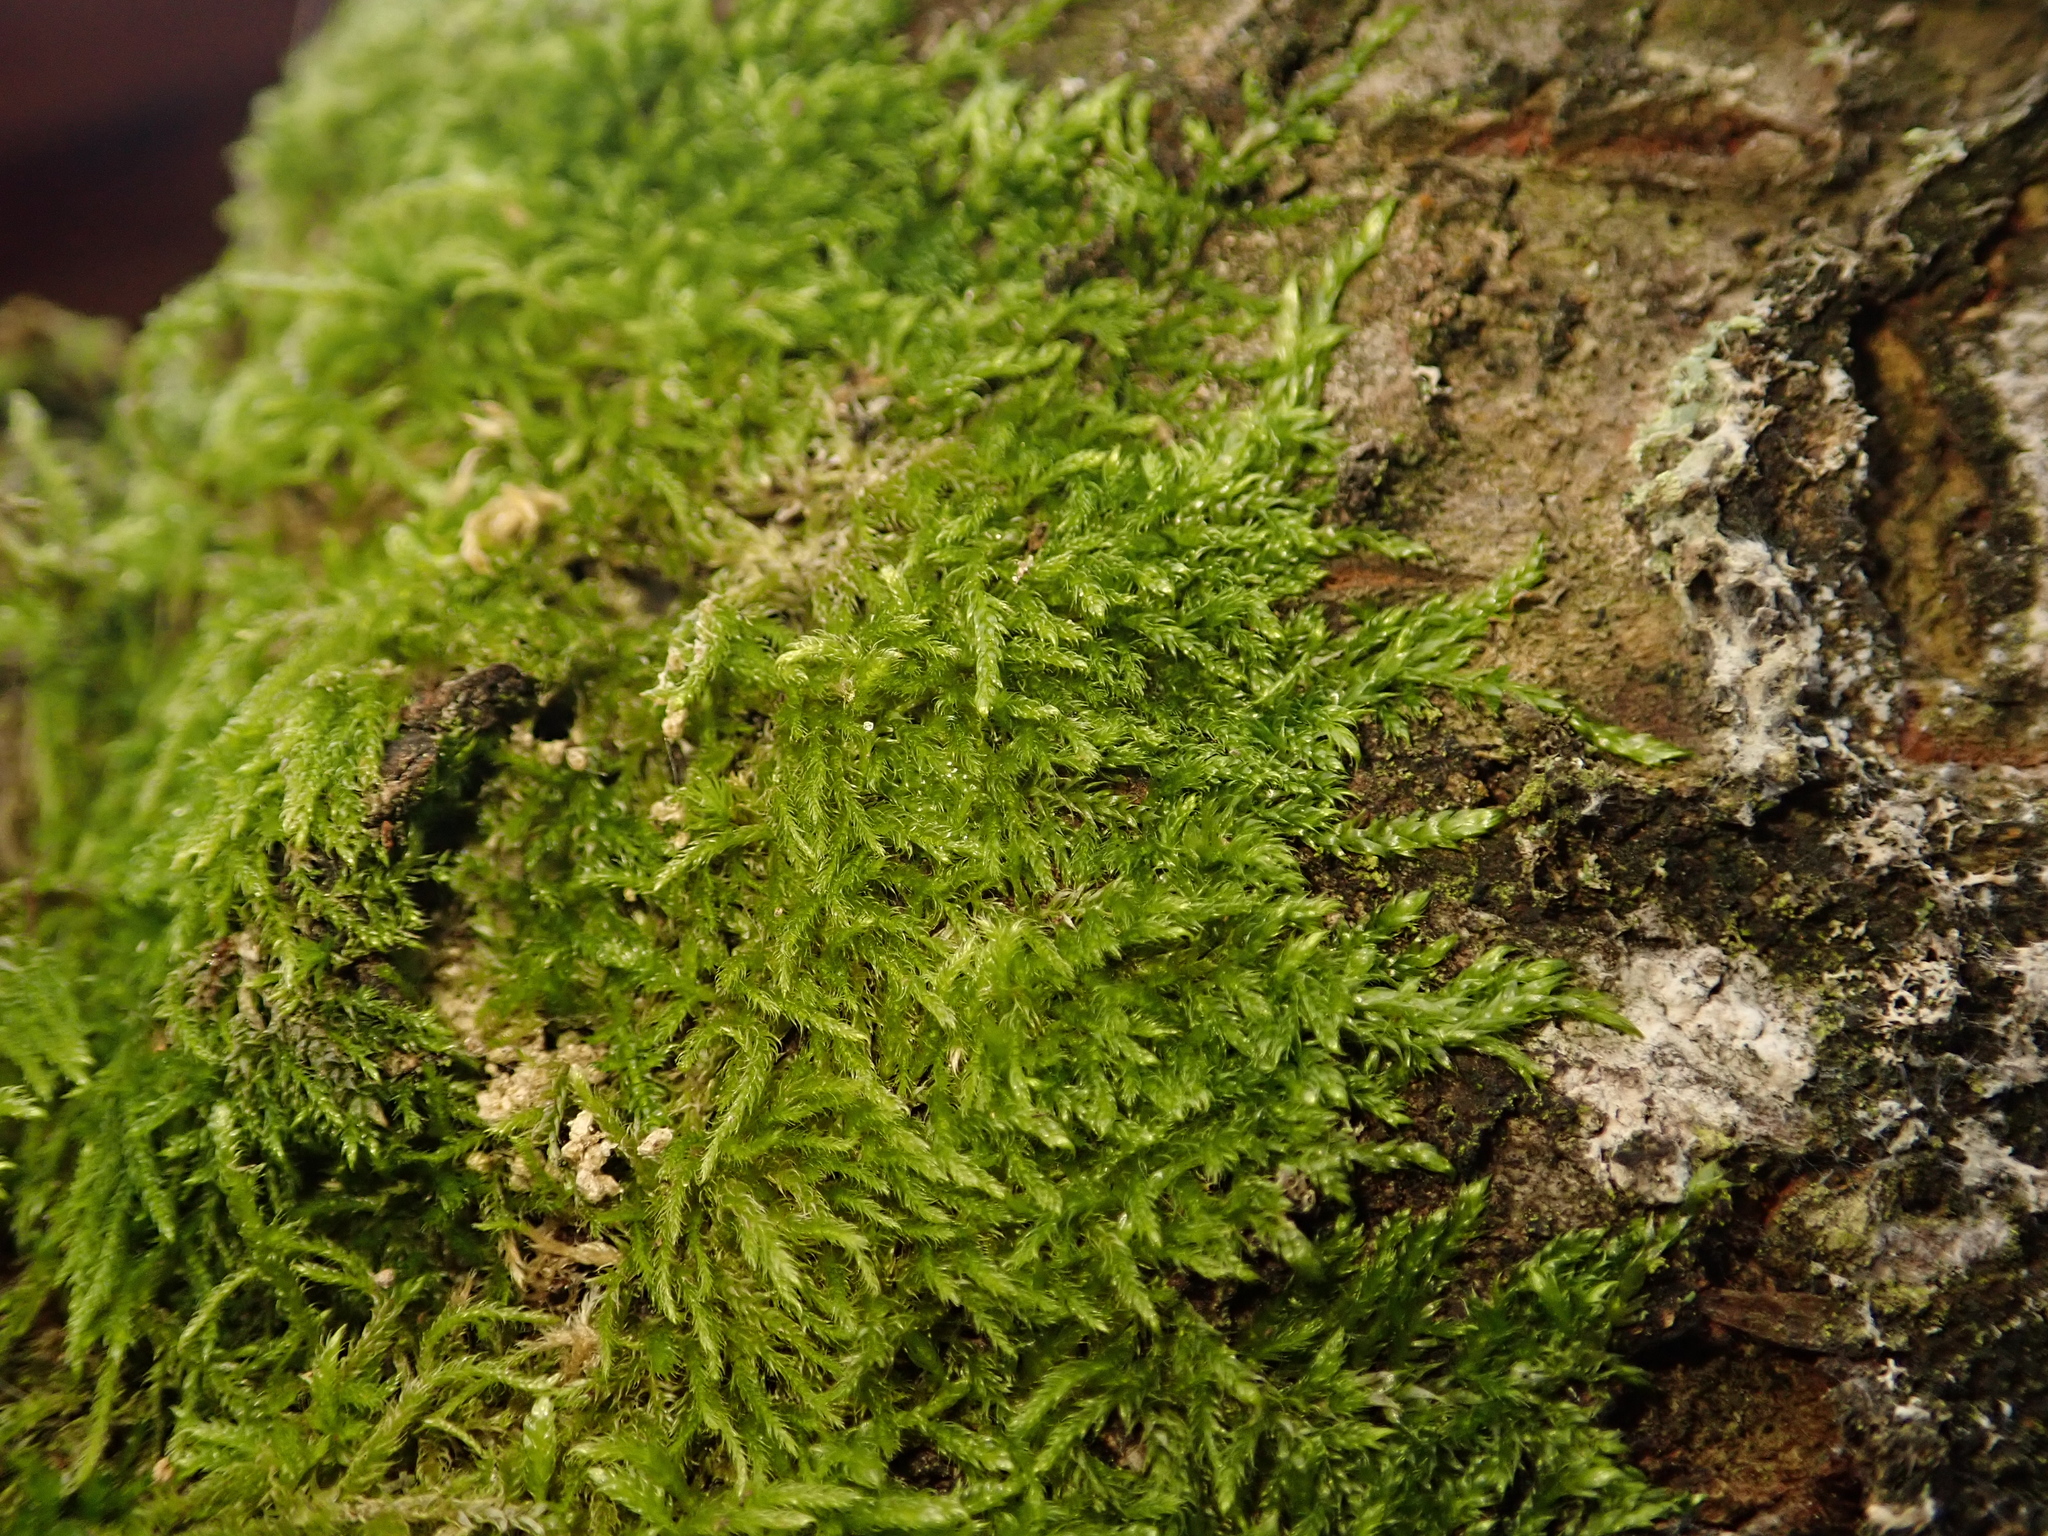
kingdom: Plantae
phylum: Bryophyta
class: Bryopsida
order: Hypnales
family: Hypnaceae
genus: Hypnum
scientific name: Hypnum cupressiforme
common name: Cypress-leaved plait-moss
